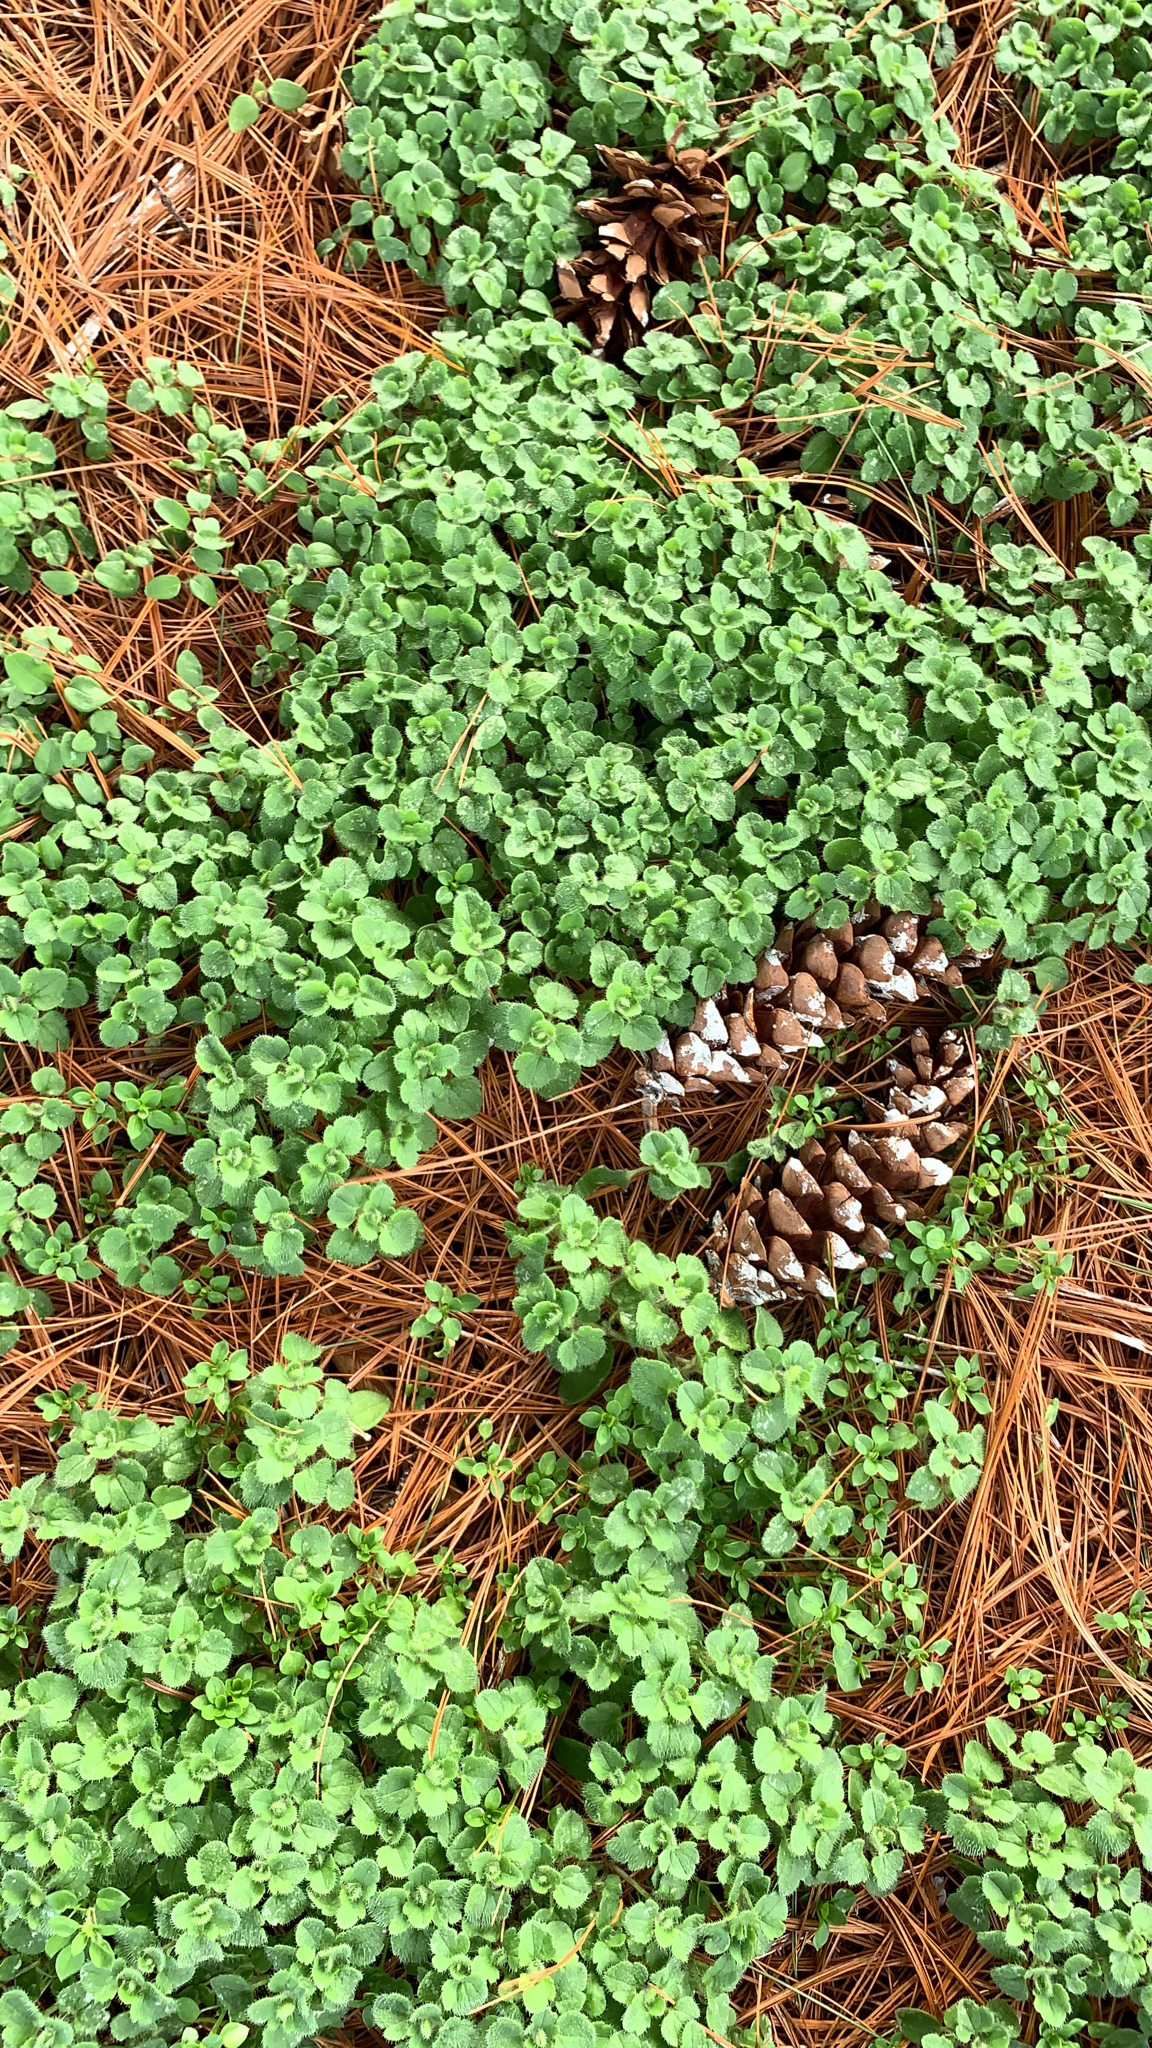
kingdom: Plantae
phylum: Tracheophyta
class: Magnoliopsida
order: Lamiales
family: Plantaginaceae
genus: Veronica
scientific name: Veronica hederifolia
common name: Ivy-leaved speedwell
